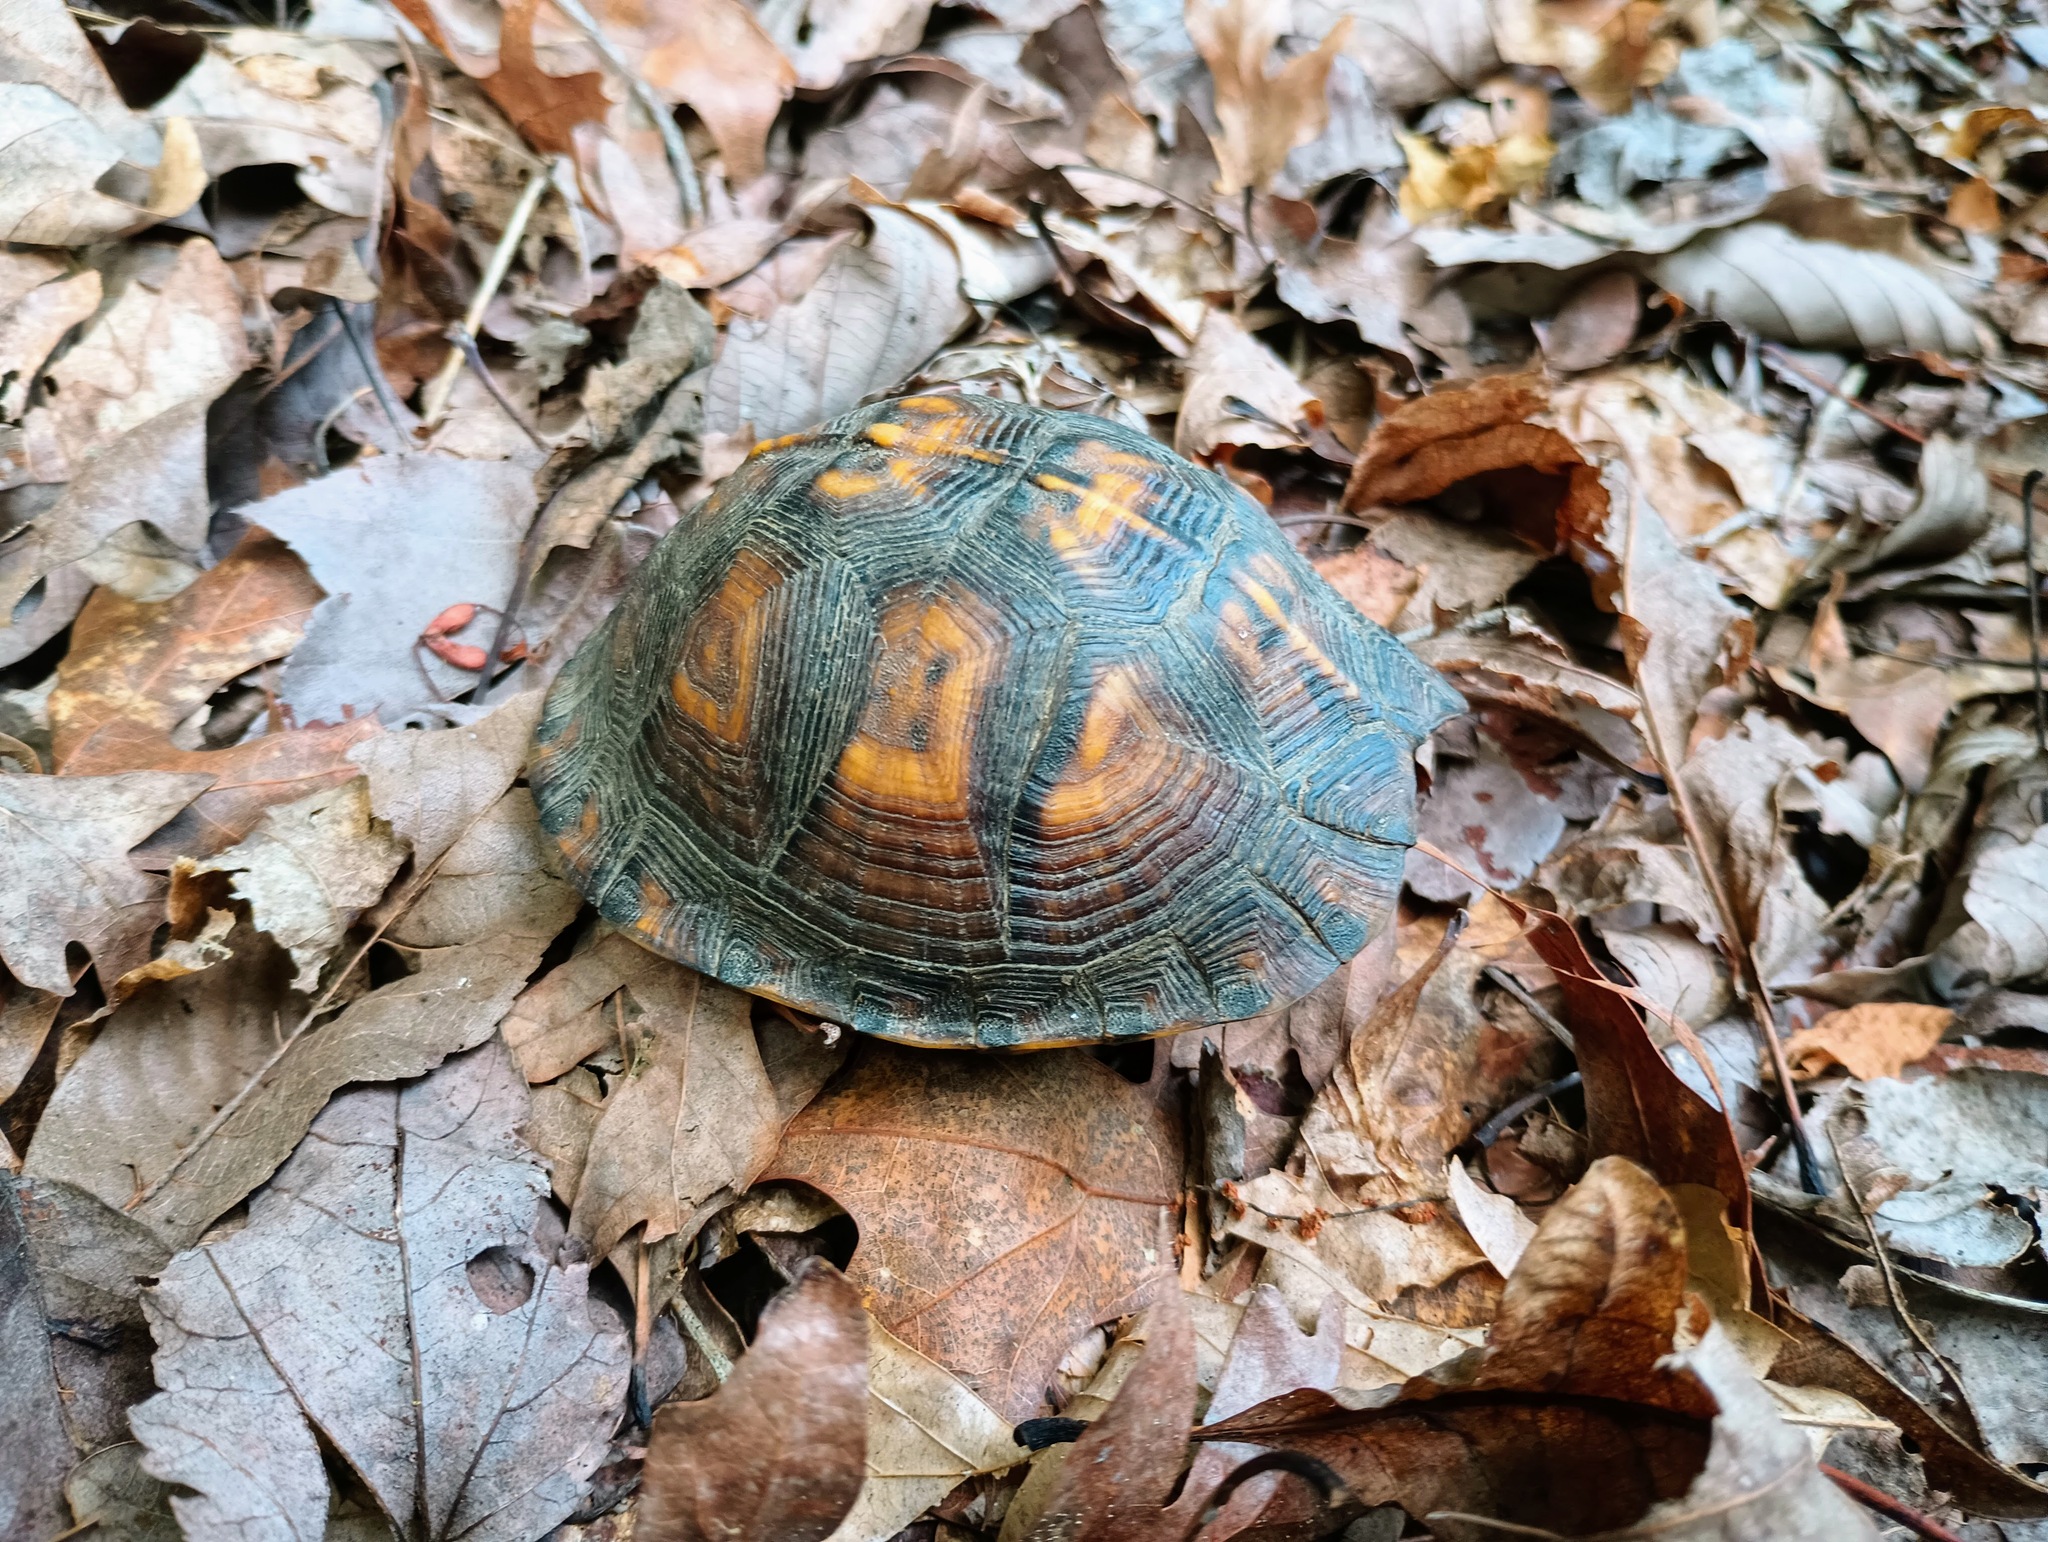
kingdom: Animalia
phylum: Chordata
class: Testudines
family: Emydidae
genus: Terrapene
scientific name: Terrapene carolina
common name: Common box turtle
